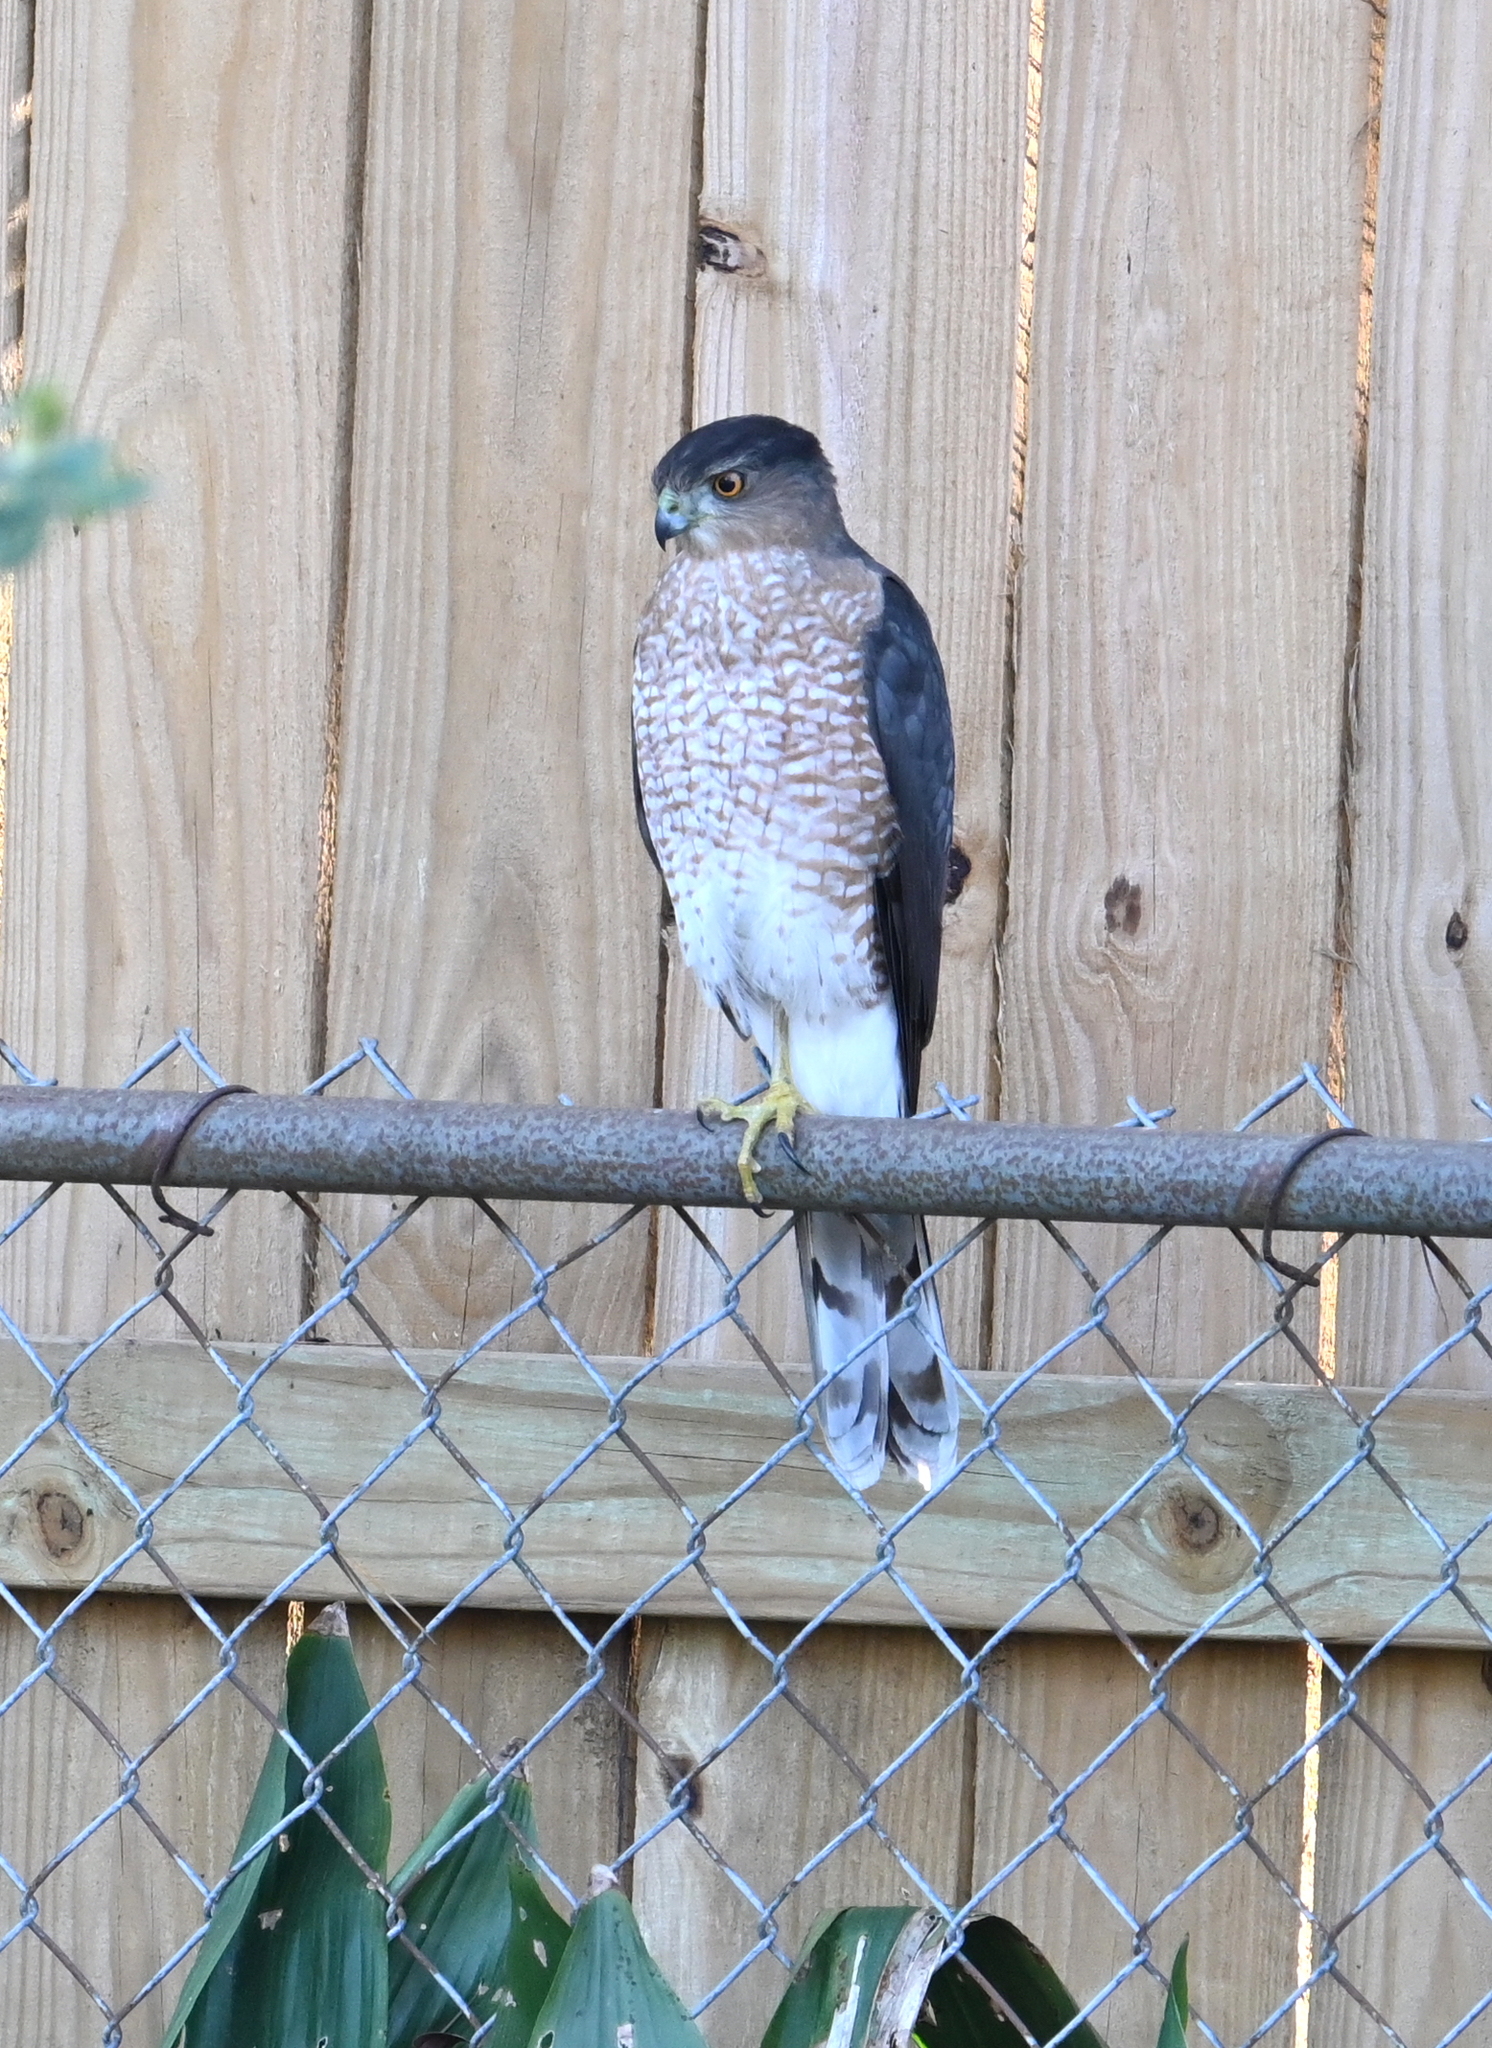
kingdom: Animalia
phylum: Chordata
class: Aves
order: Accipitriformes
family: Accipitridae
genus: Accipiter
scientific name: Accipiter cooperii
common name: Cooper's hawk
